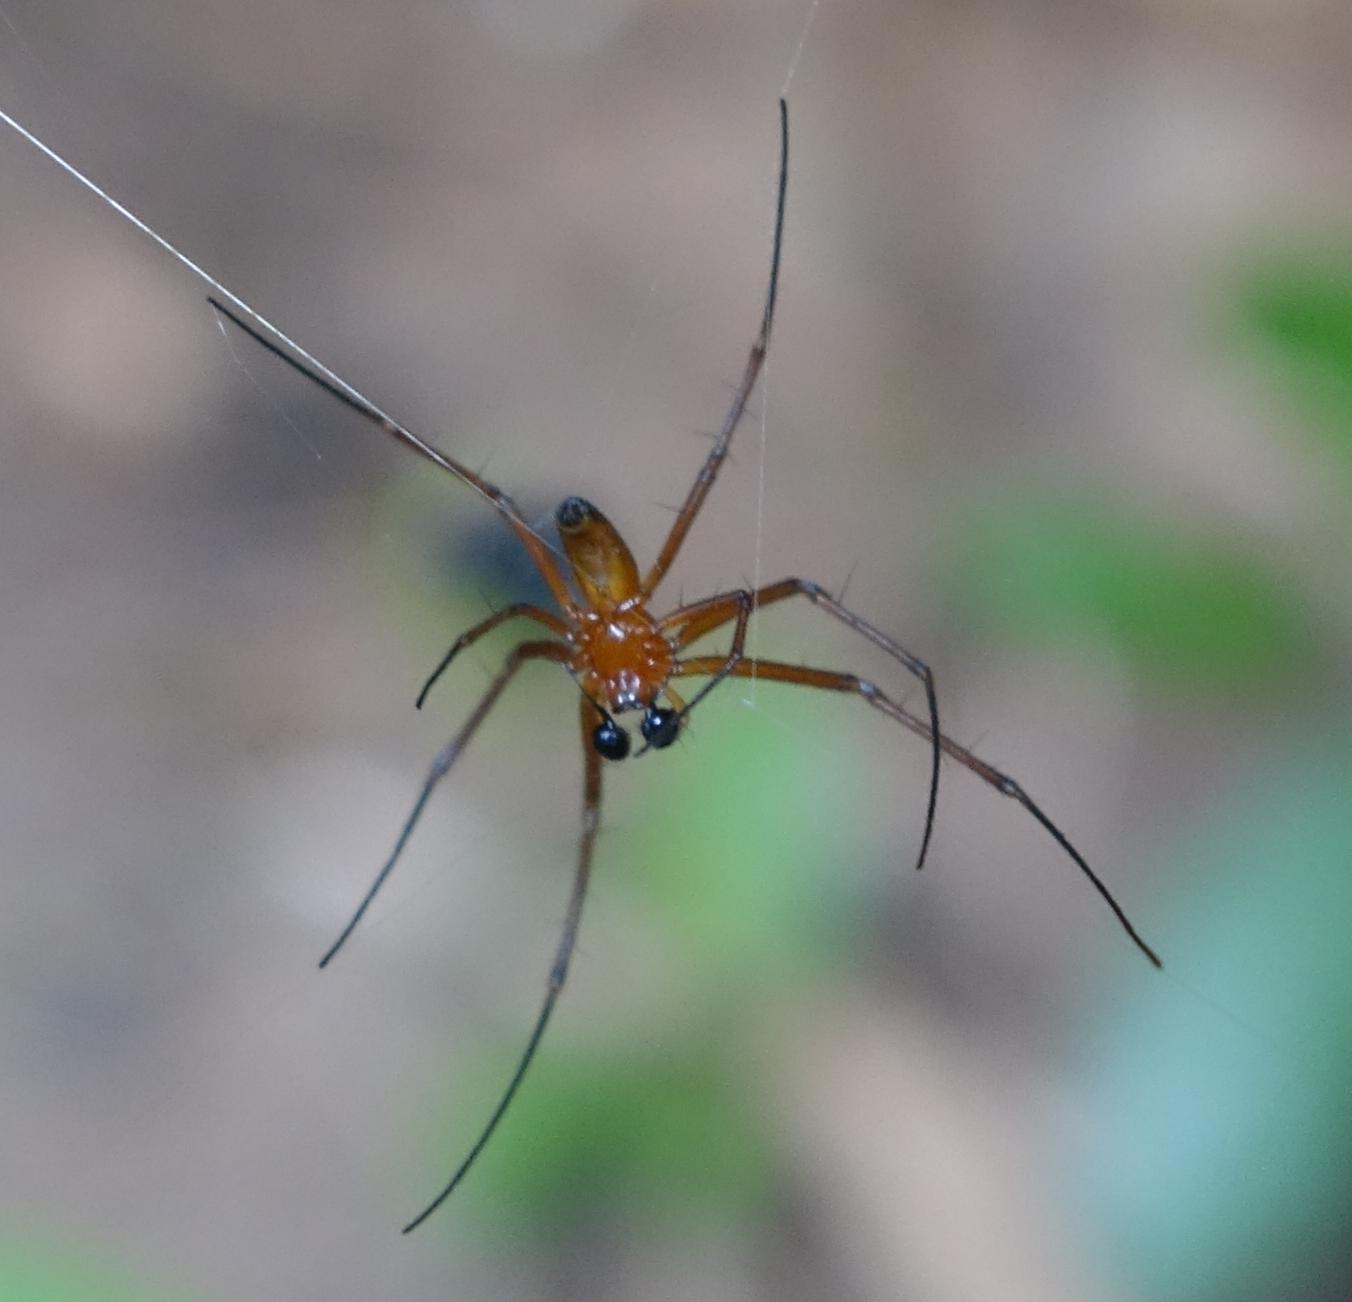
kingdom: Animalia
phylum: Arthropoda
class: Arachnida
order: Araneae
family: Araneidae
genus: Nephila
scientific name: Nephila pilipes
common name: Giant golden orb weaver
